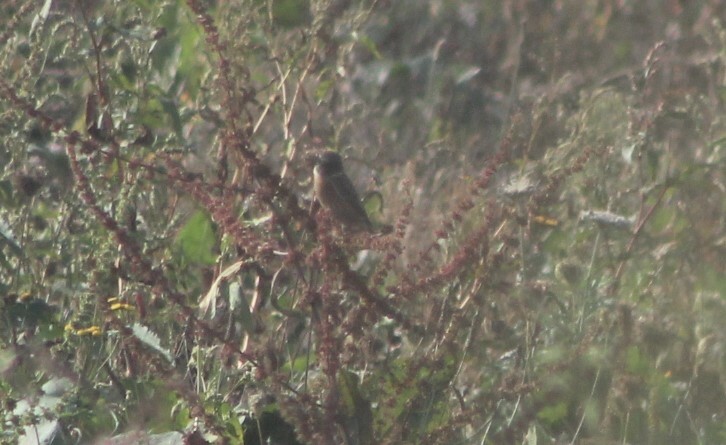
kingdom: Animalia
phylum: Chordata
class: Aves
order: Passeriformes
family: Muscicapidae
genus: Saxicola
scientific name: Saxicola rubicola
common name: European stonechat
